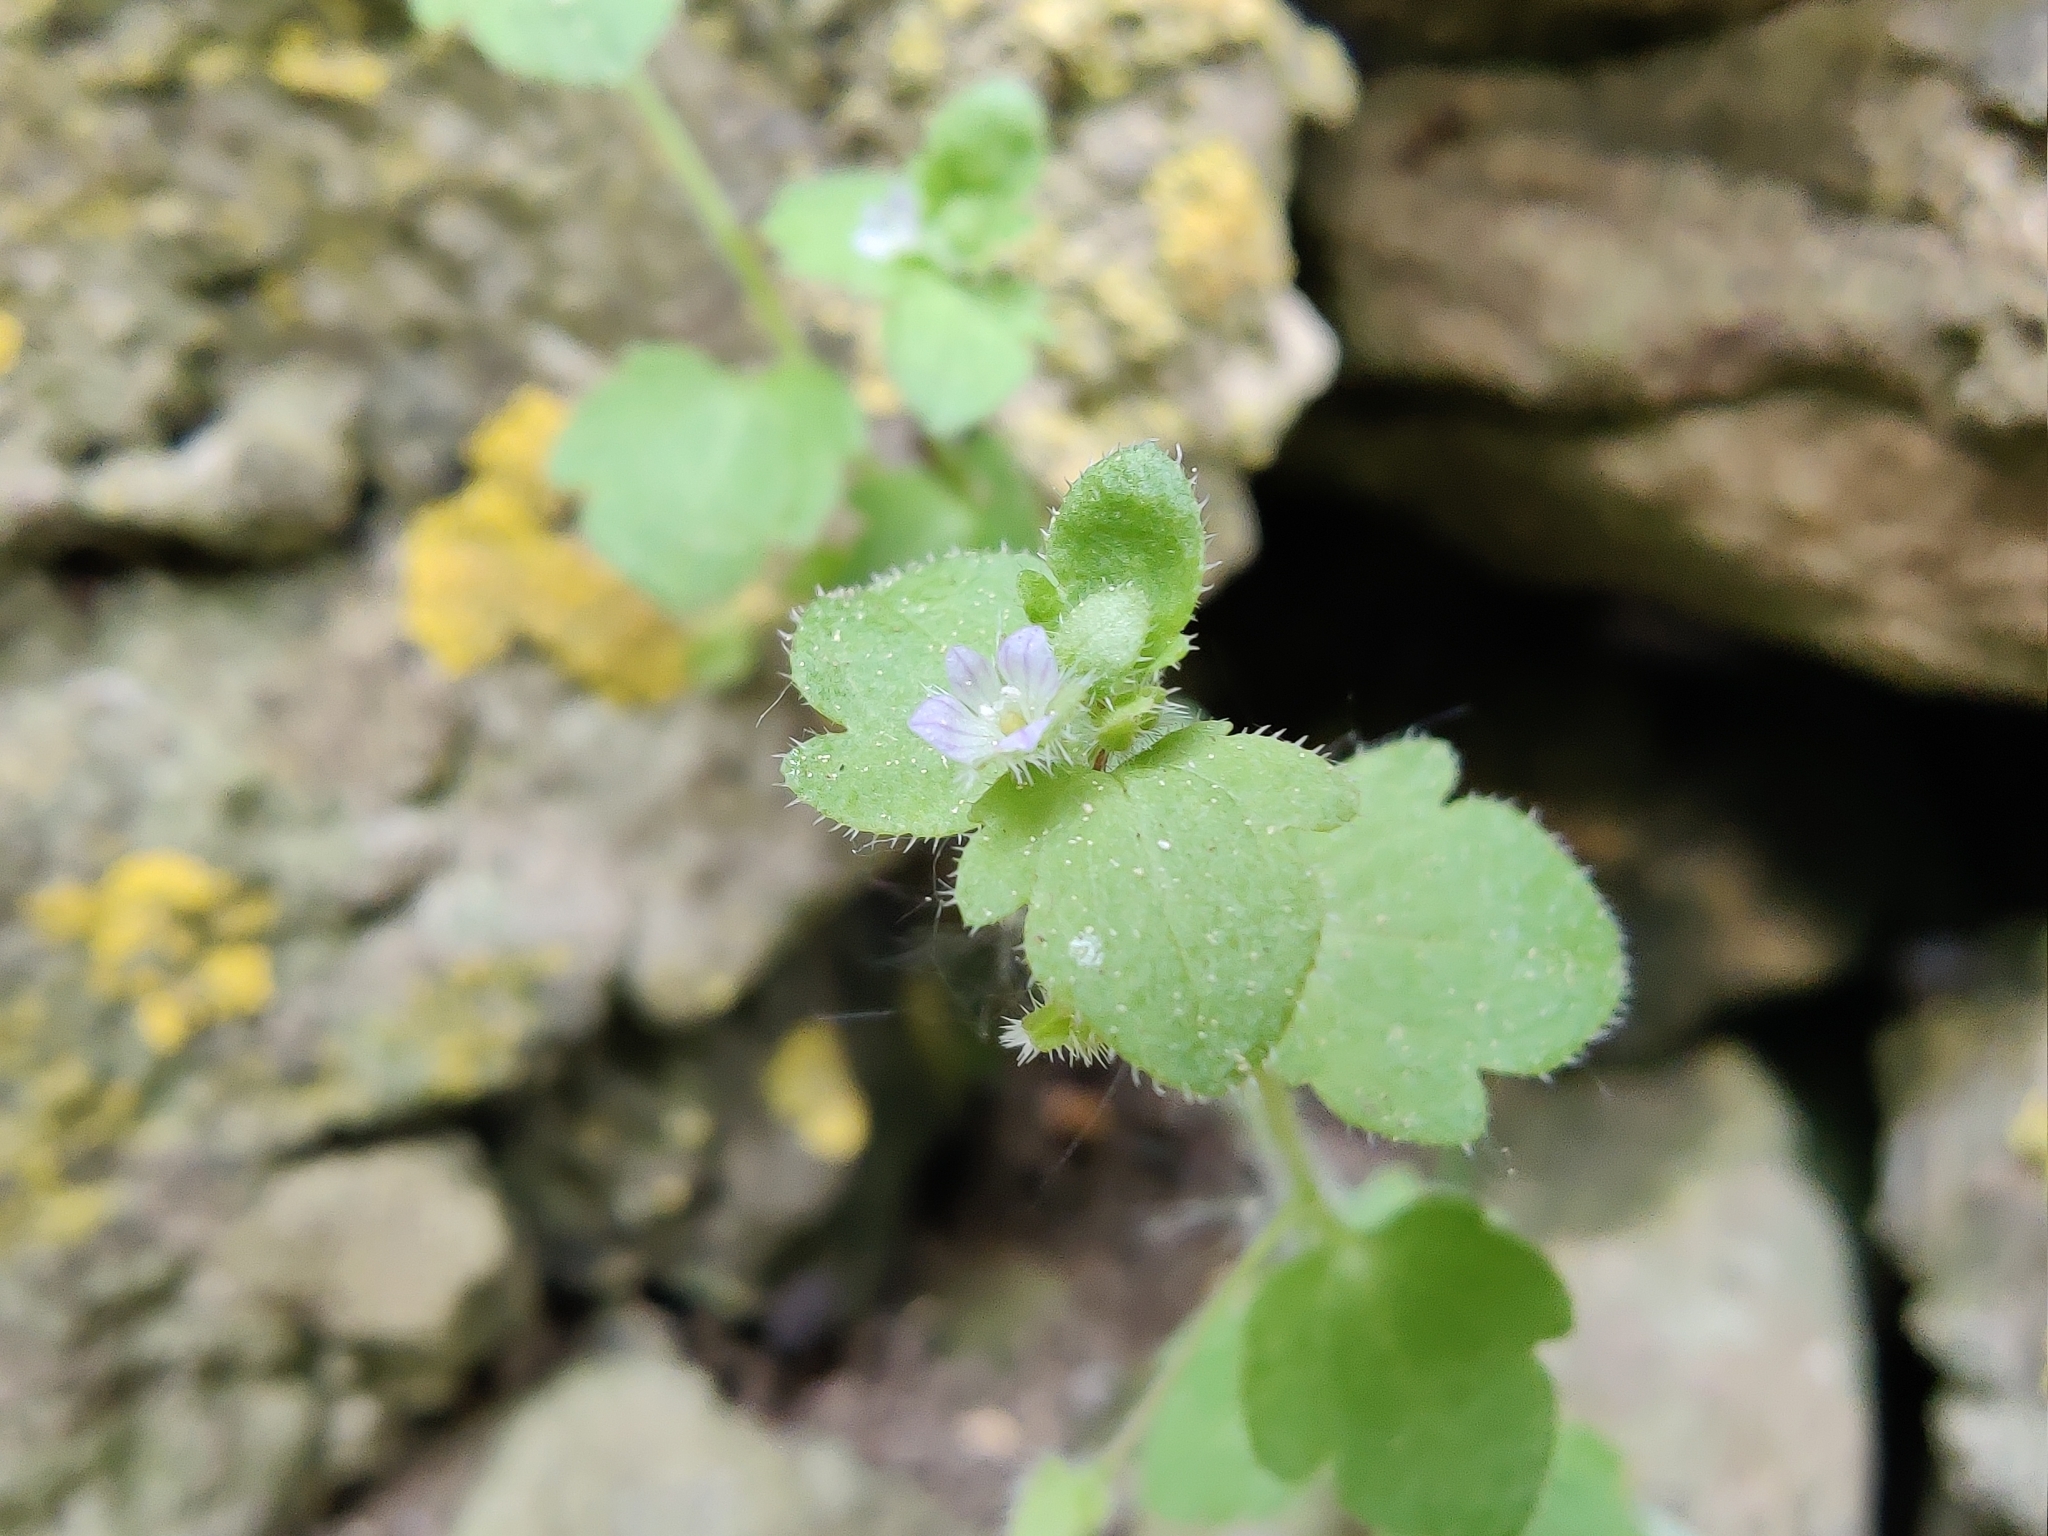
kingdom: Plantae
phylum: Tracheophyta
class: Magnoliopsida
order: Lamiales
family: Plantaginaceae
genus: Veronica
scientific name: Veronica sublobata
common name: False ivy-leaved speedwell
